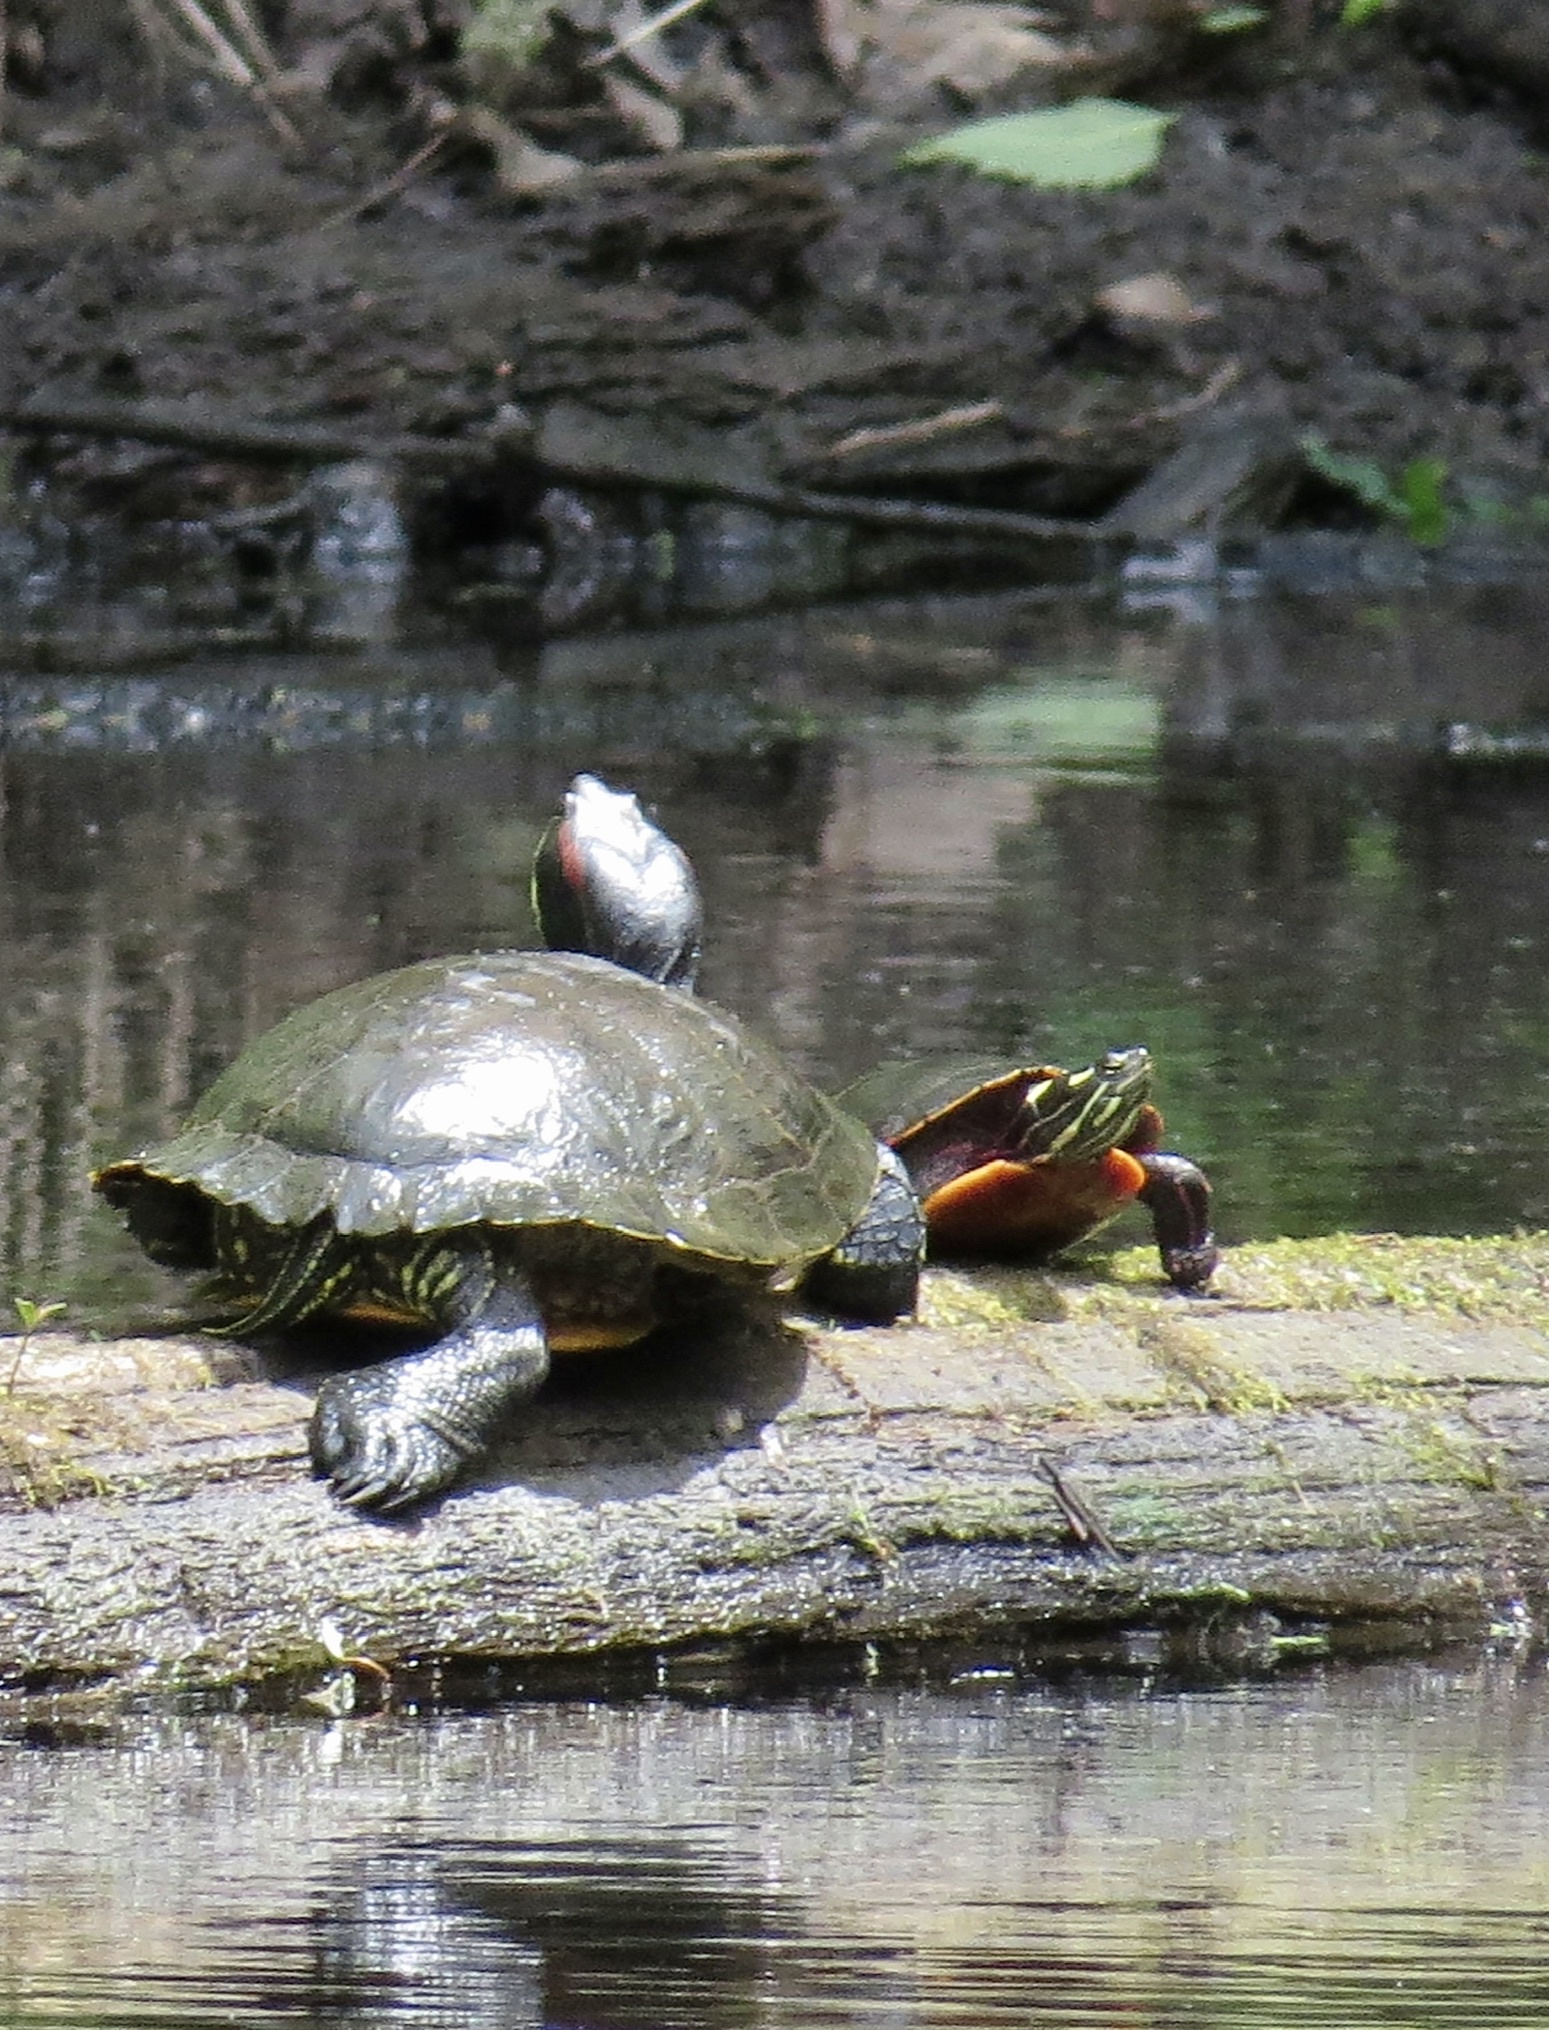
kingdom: Animalia
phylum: Chordata
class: Testudines
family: Emydidae
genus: Chrysemys
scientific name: Chrysemys picta
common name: Painted turtle
